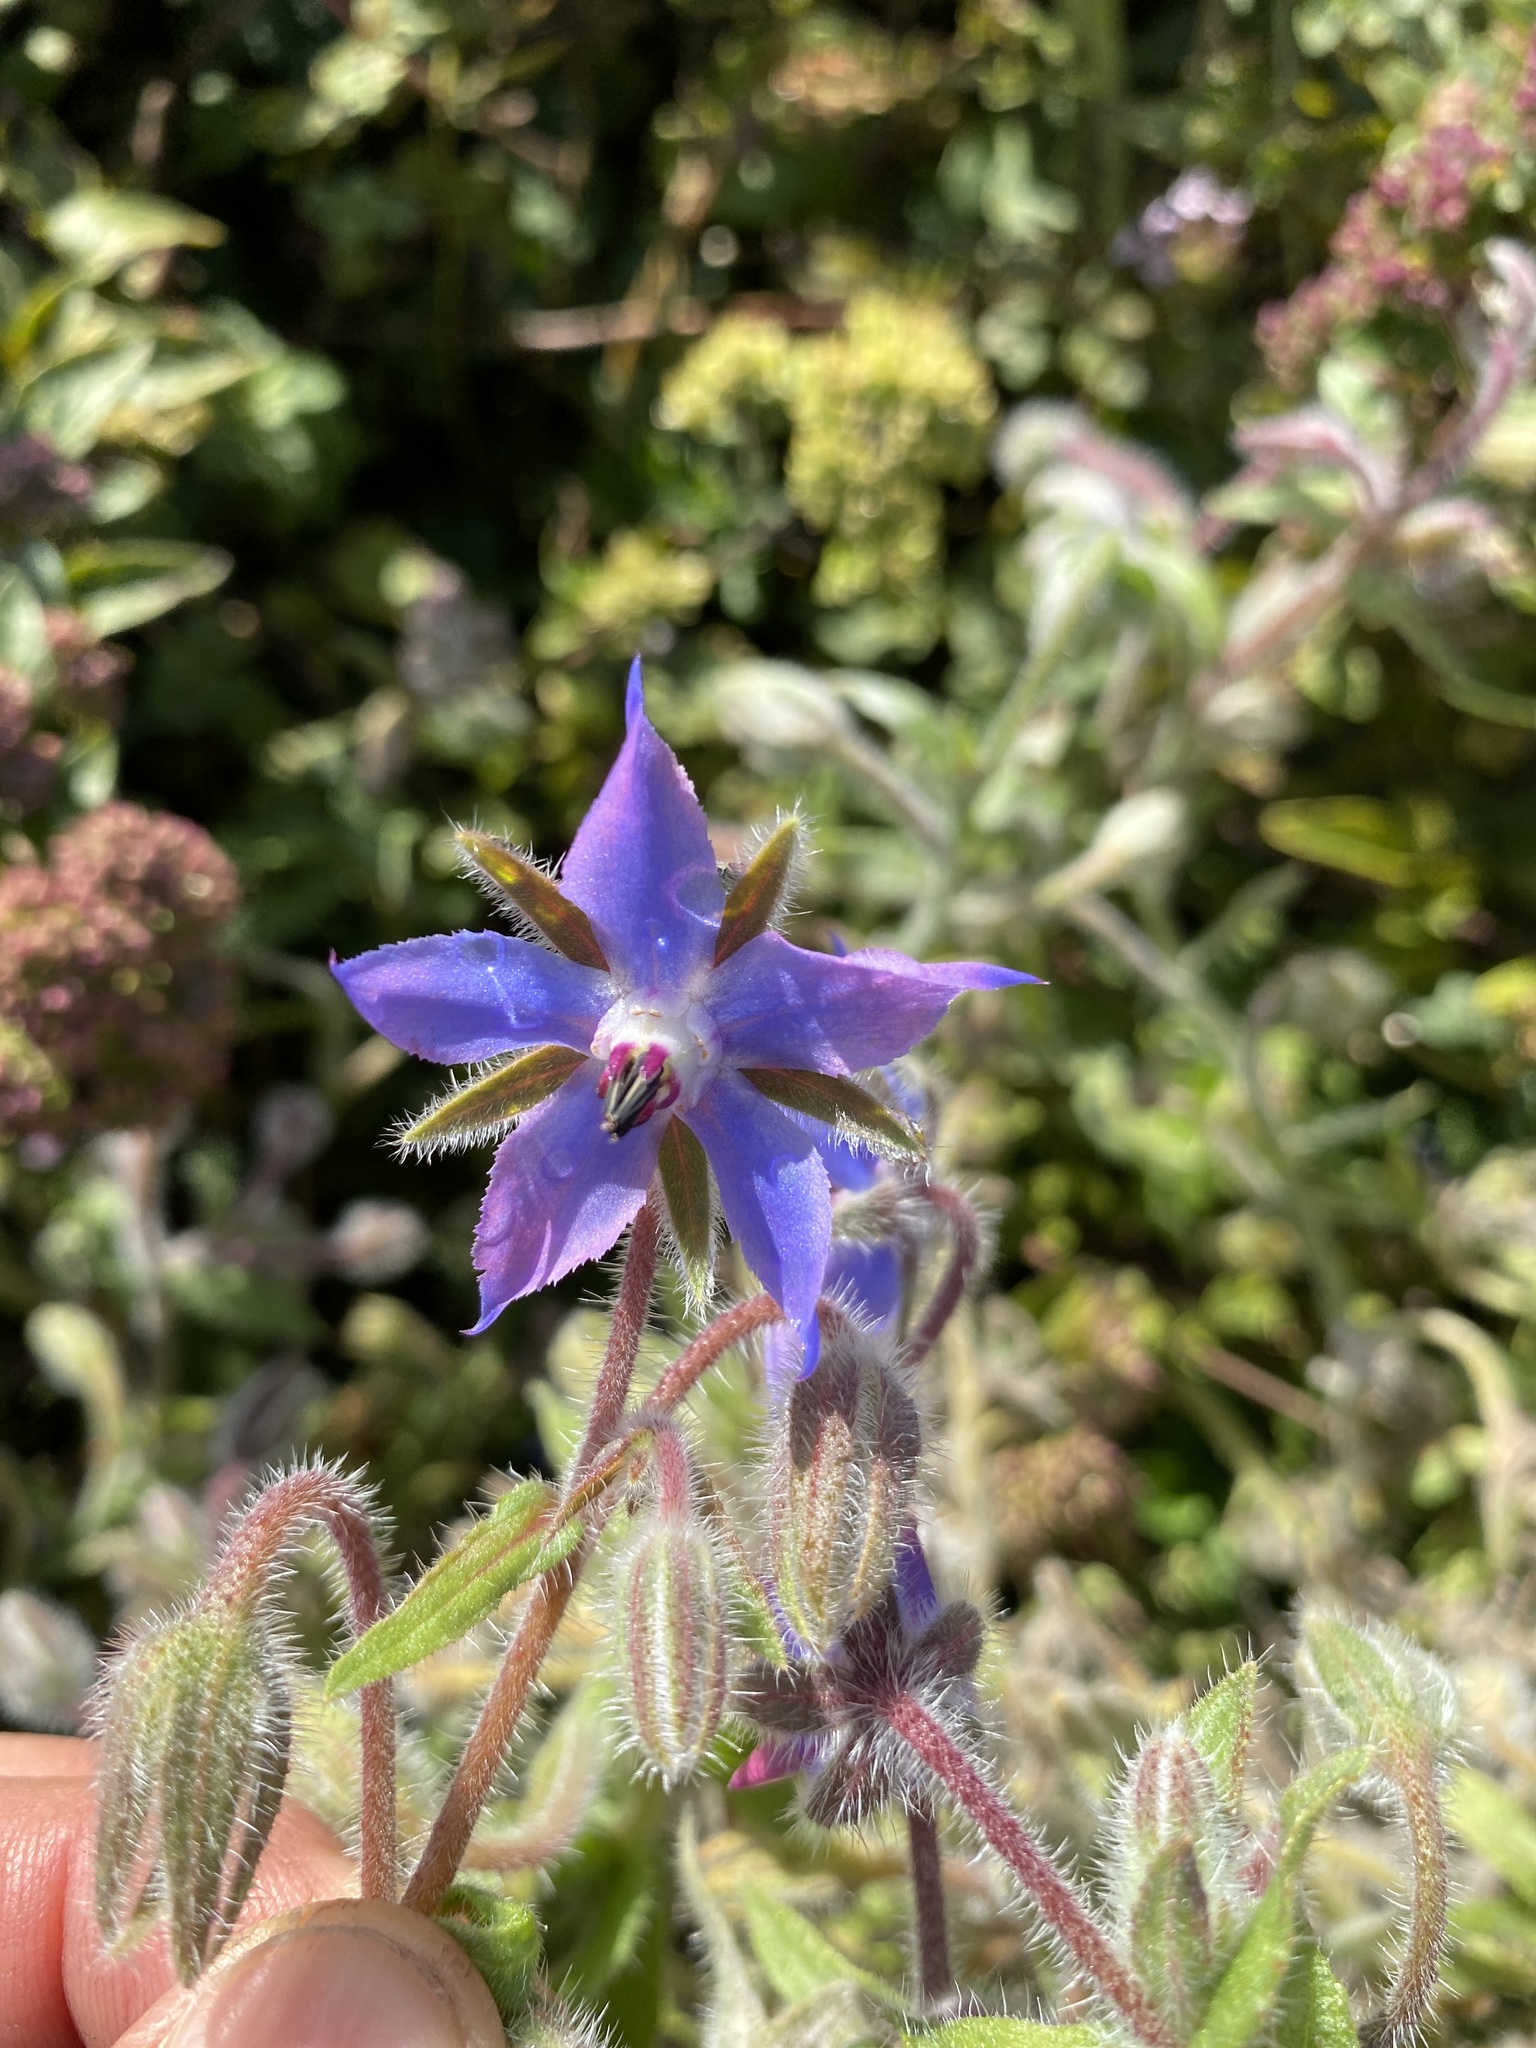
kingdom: Plantae
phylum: Tracheophyta
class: Magnoliopsida
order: Boraginales
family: Boraginaceae
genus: Borago
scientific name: Borago officinalis
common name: Borage
